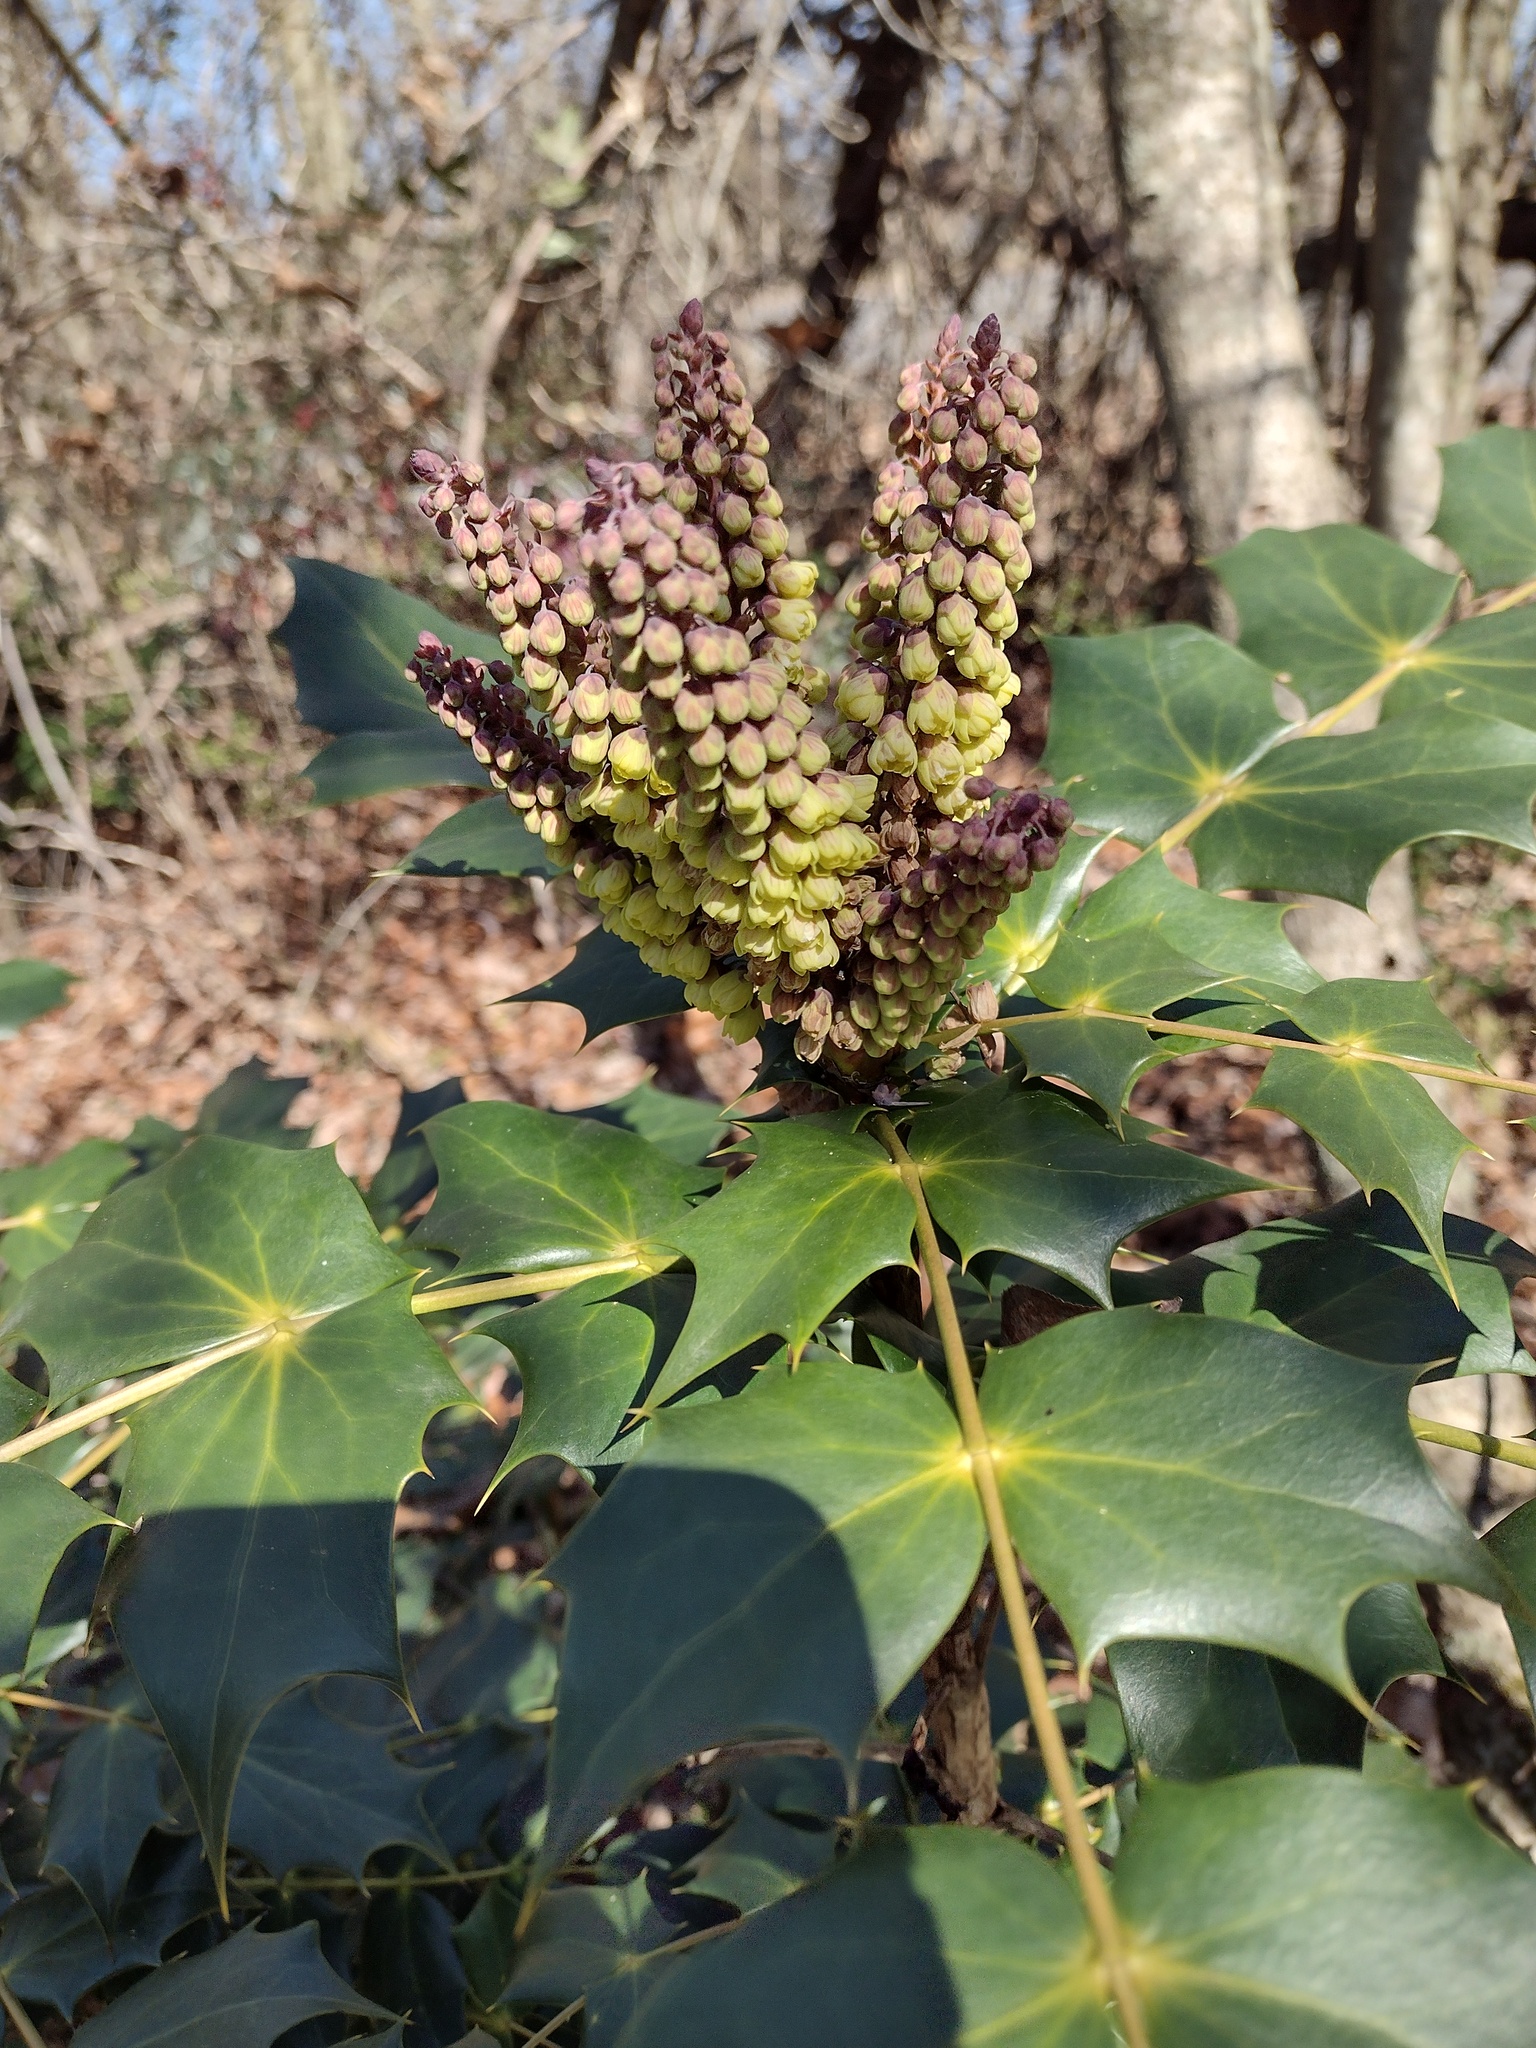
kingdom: Plantae
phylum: Tracheophyta
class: Magnoliopsida
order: Ranunculales
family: Berberidaceae
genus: Mahonia
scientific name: Mahonia bealei
